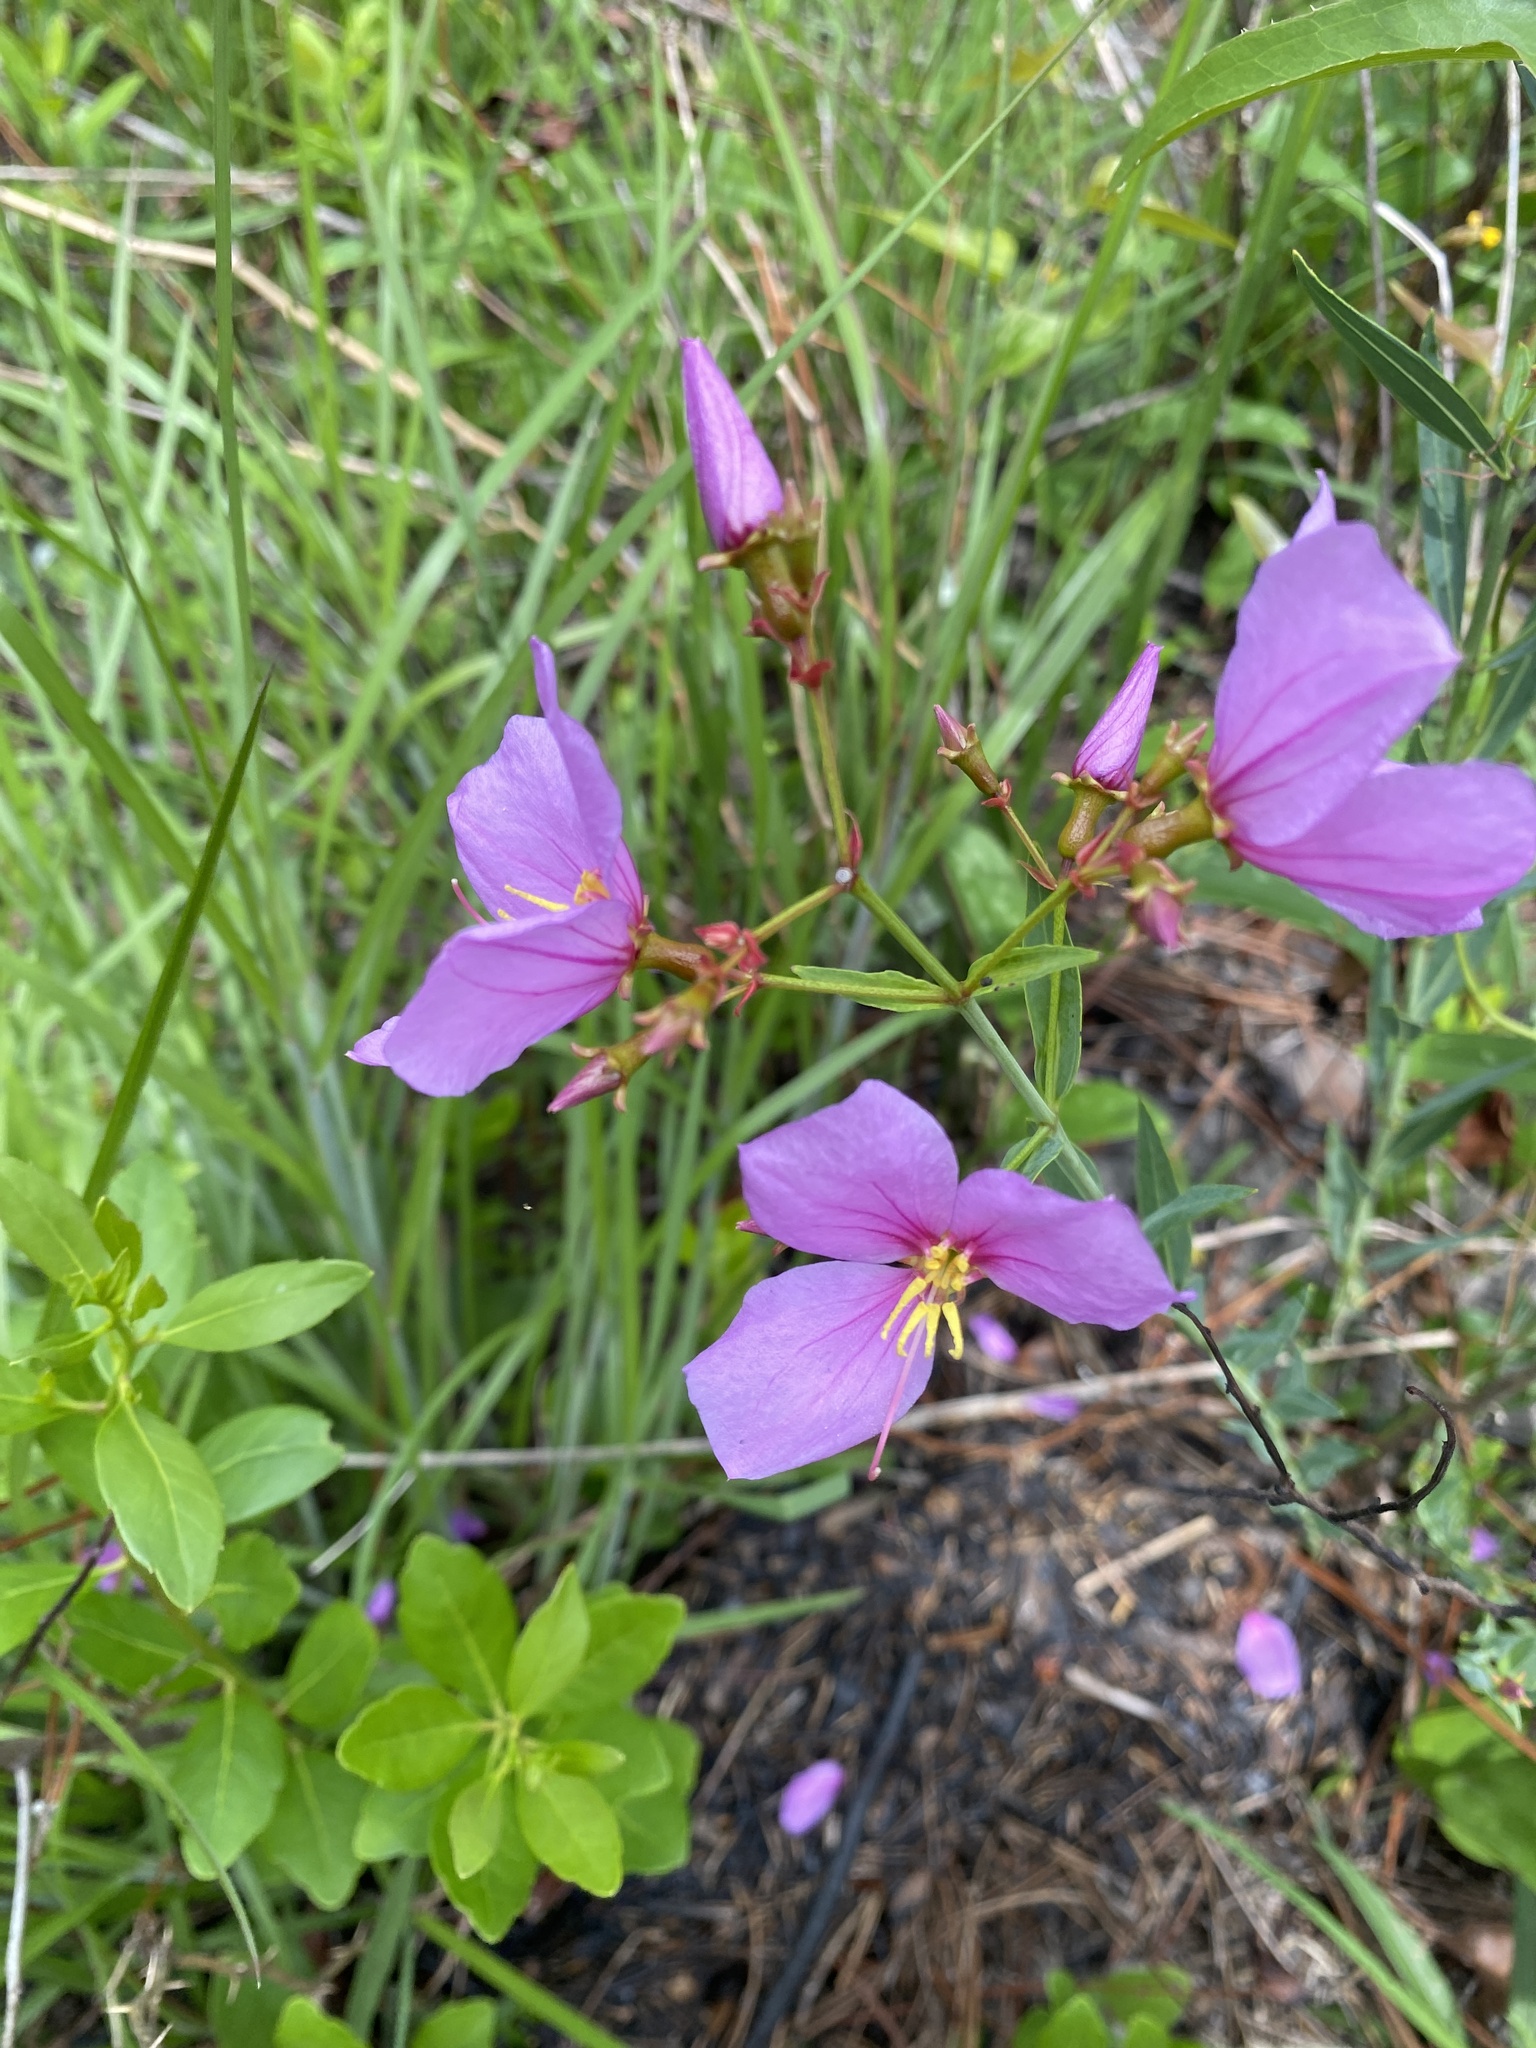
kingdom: Plantae
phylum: Tracheophyta
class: Magnoliopsida
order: Myrtales
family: Melastomataceae
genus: Rhexia
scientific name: Rhexia alifanus
